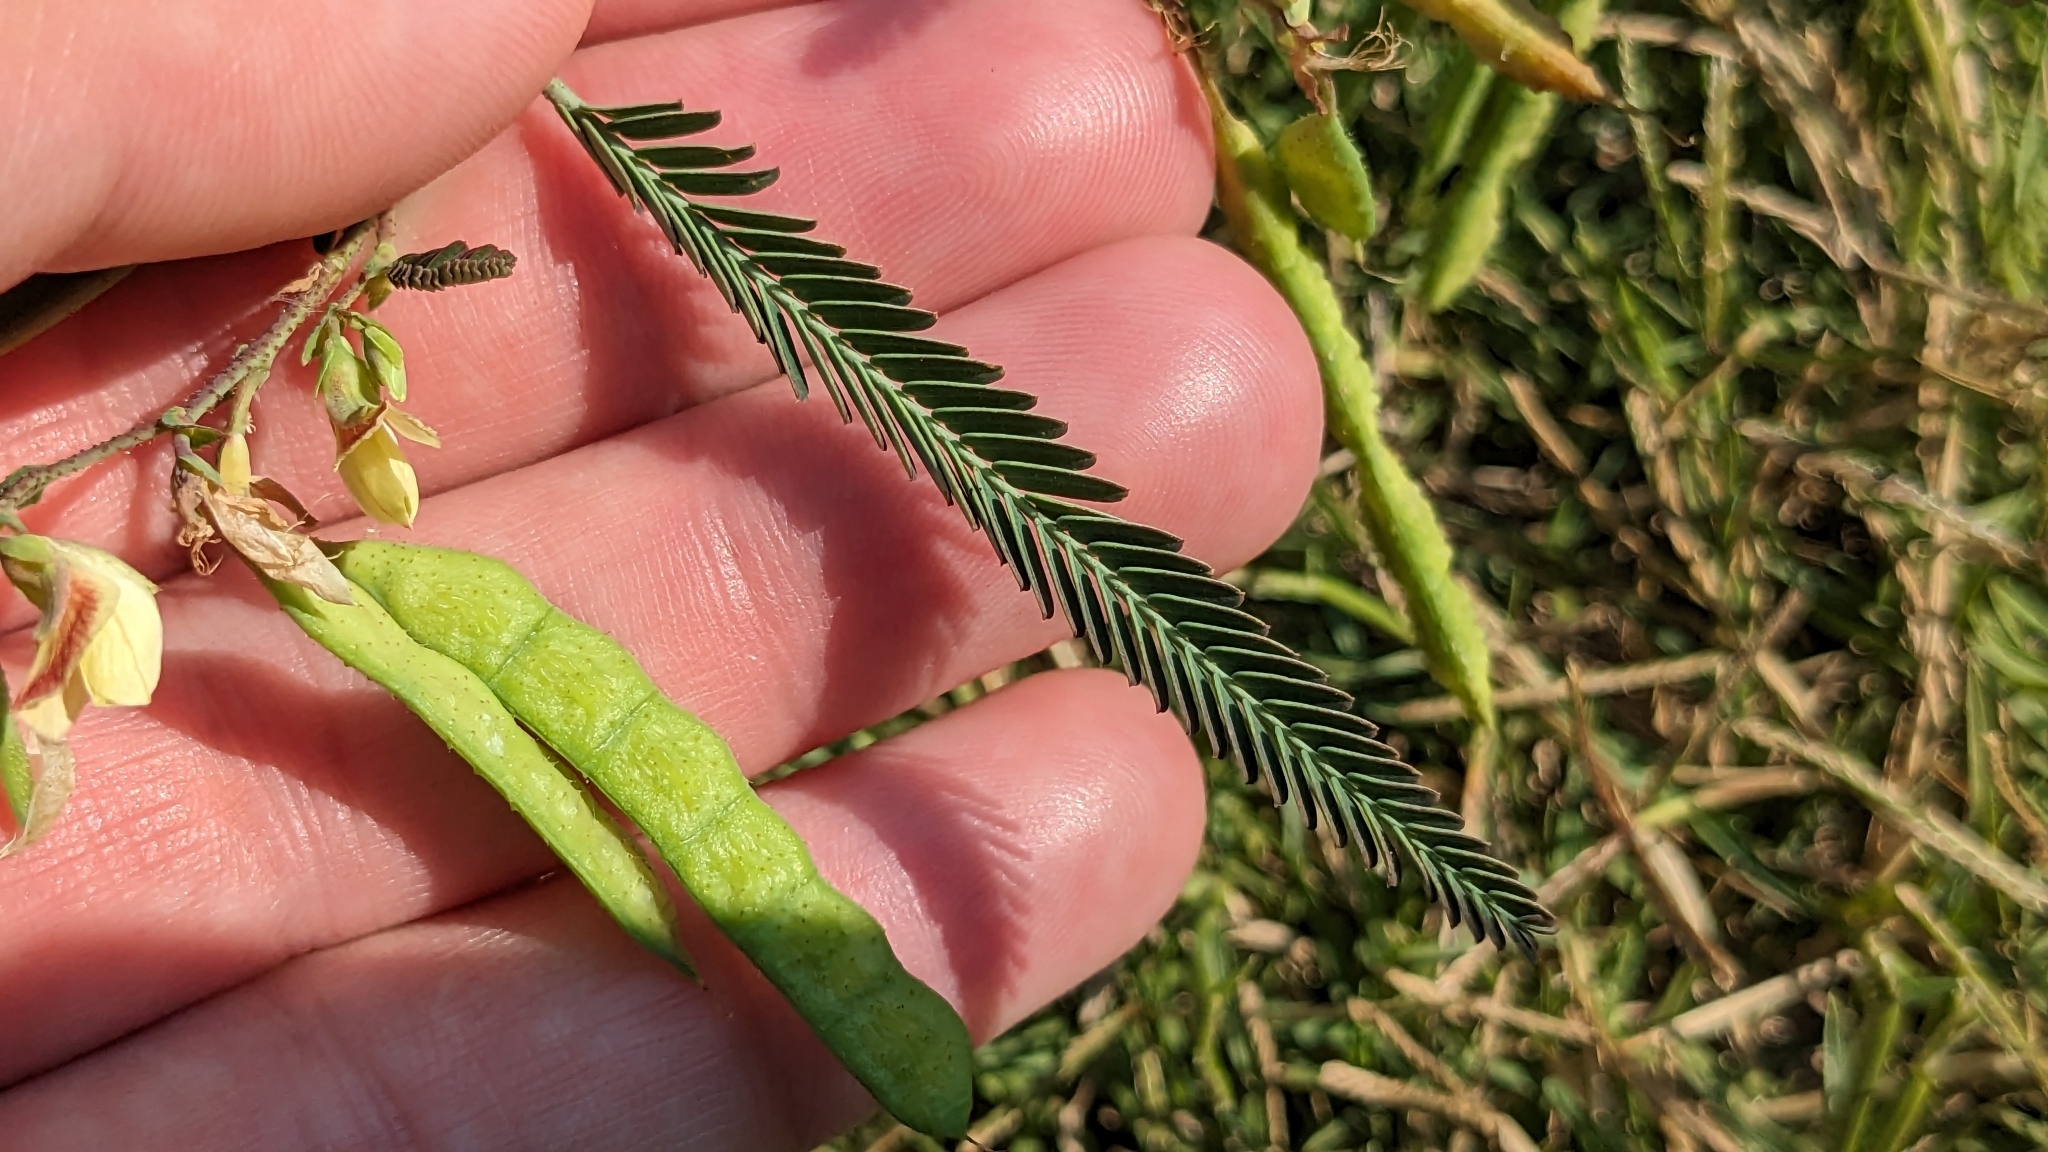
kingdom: Plantae
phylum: Tracheophyta
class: Magnoliopsida
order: Fabales
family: Fabaceae
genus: Aeschynomene
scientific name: Aeschynomene indica
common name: Indian jointvetch
